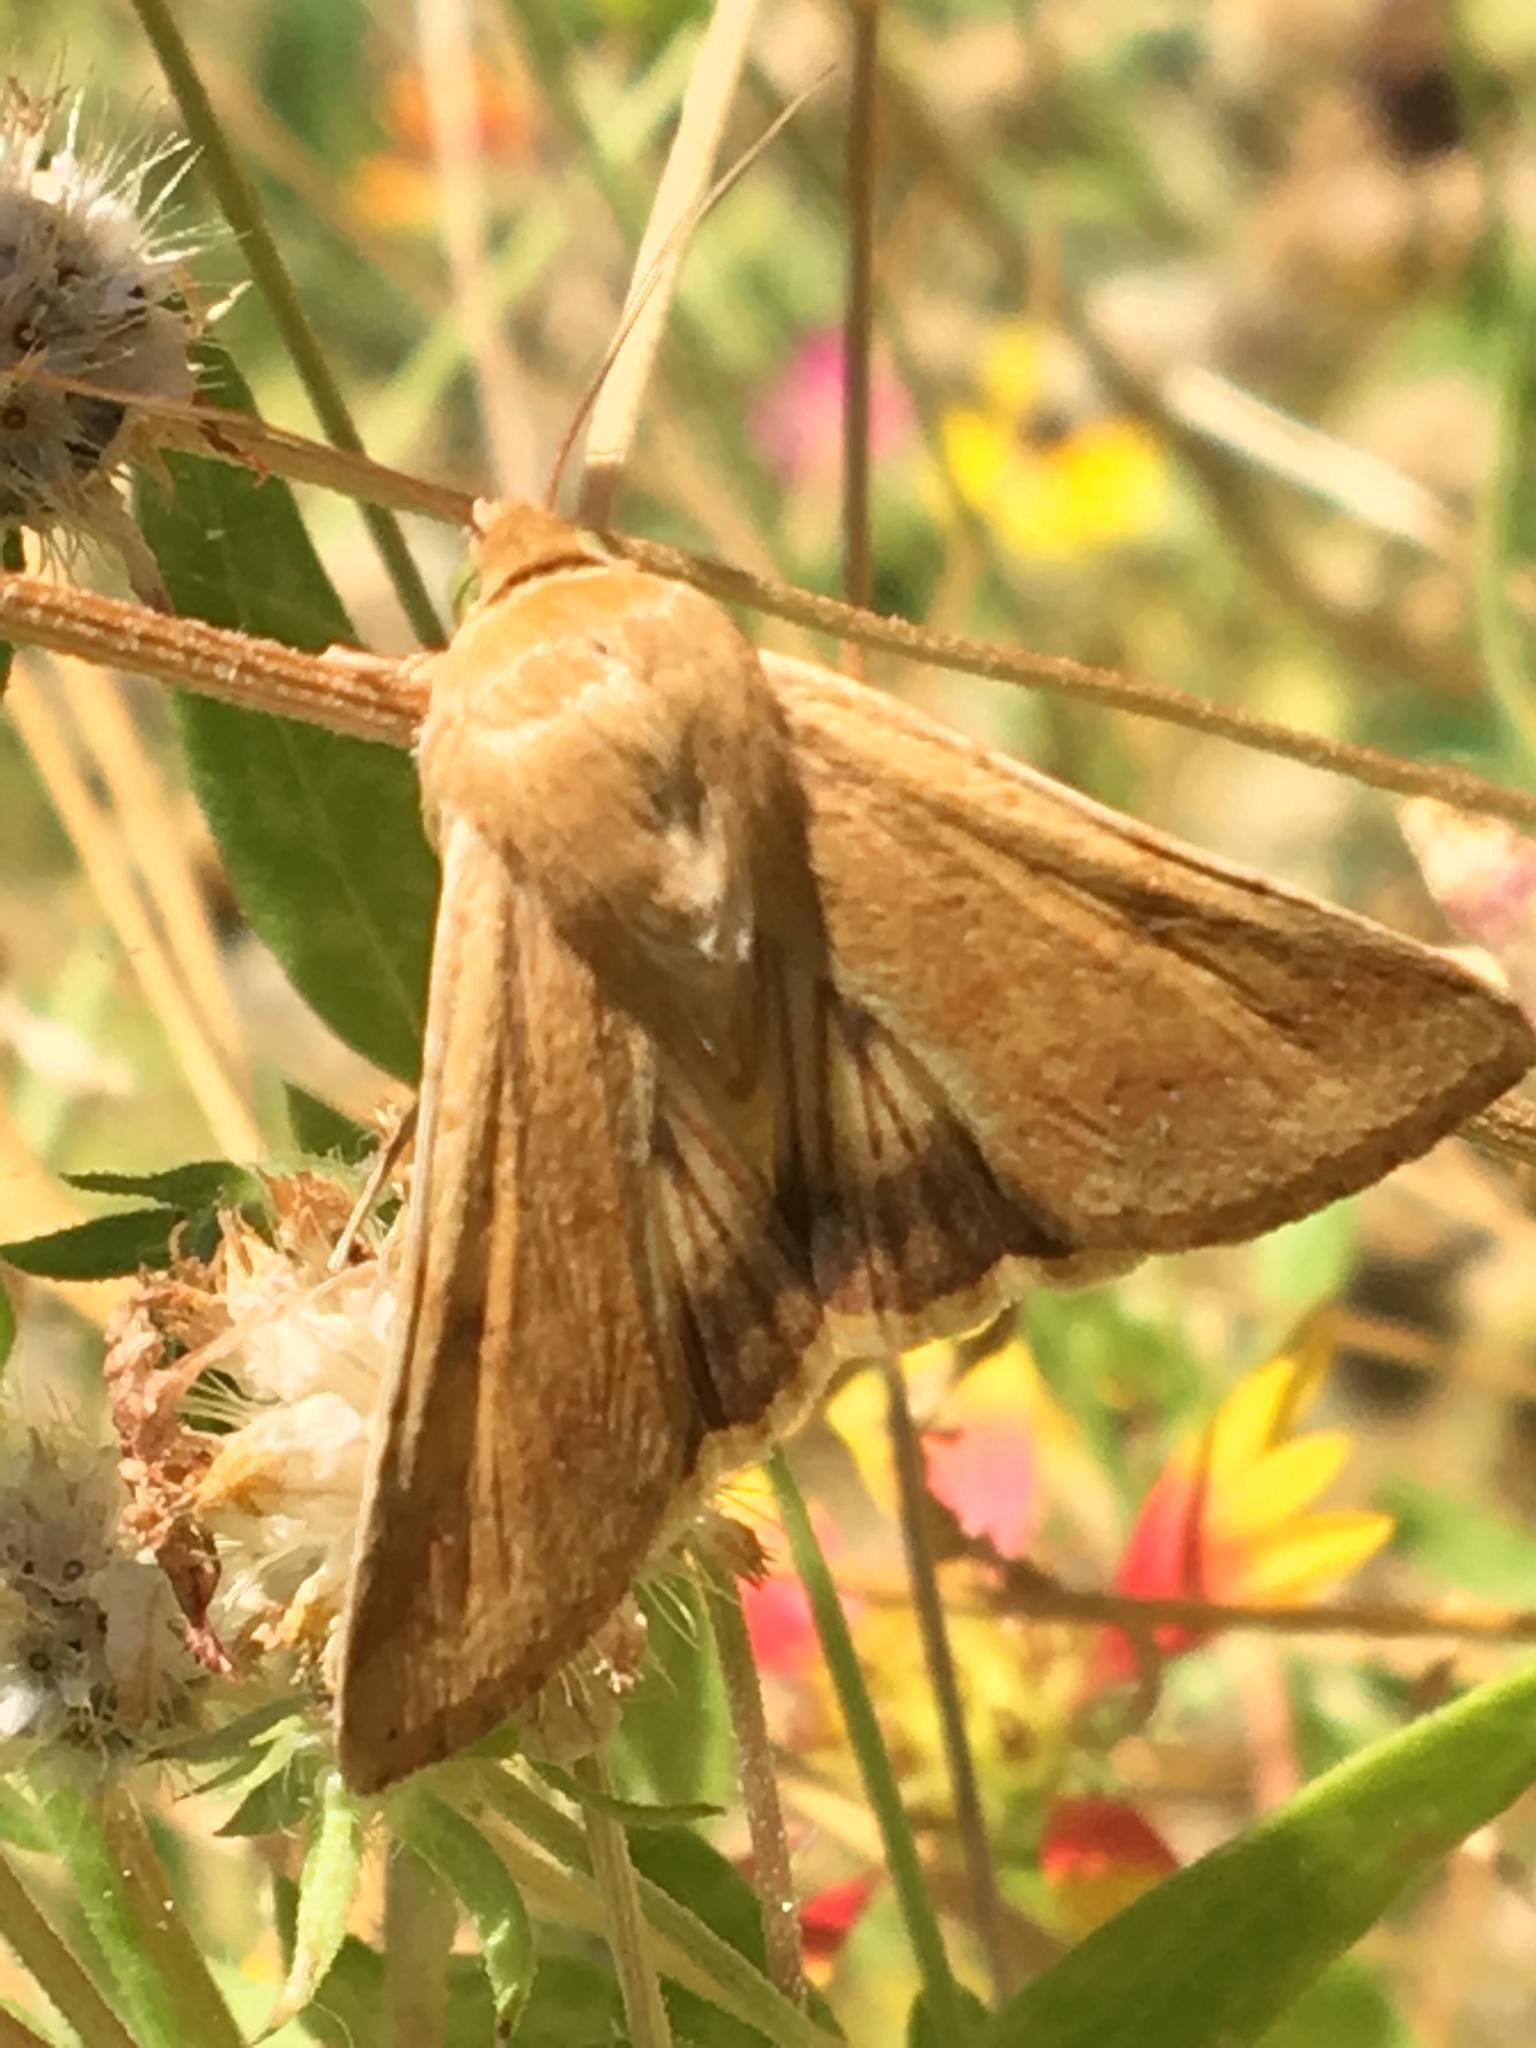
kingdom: Animalia
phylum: Arthropoda
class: Insecta
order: Lepidoptera
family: Noctuidae
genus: Helicoverpa
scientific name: Helicoverpa zea
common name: Bollworm
